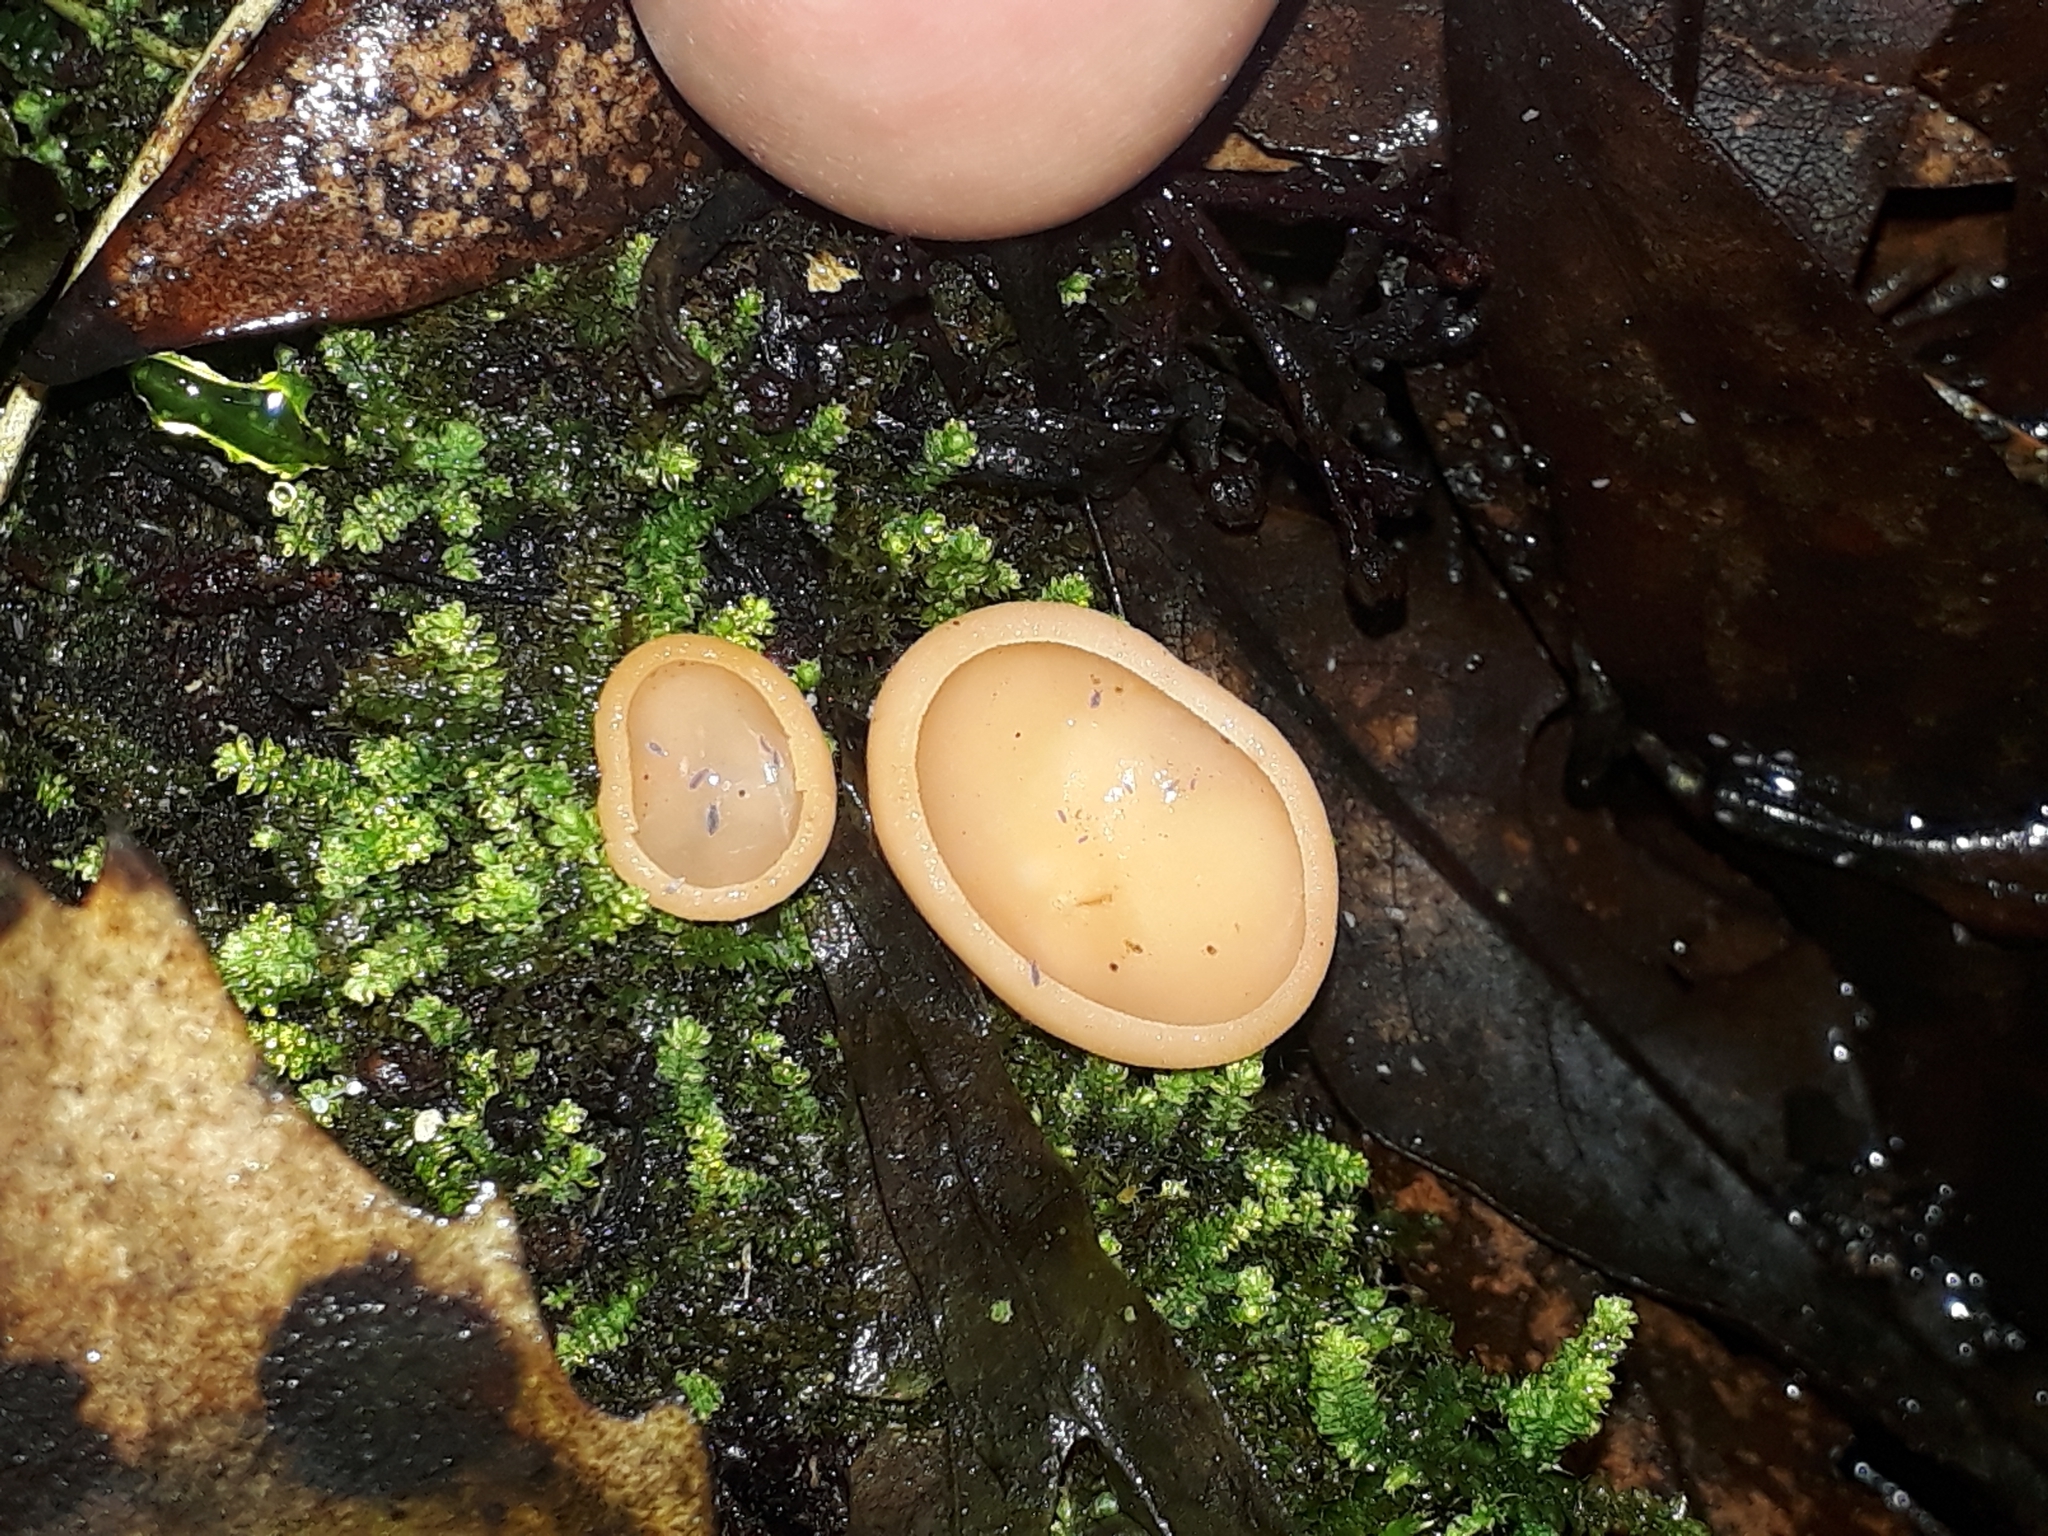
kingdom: Fungi
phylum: Ascomycota
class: Pezizomycetes
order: Pezizales
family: Sarcoscyphaceae
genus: Cookeina
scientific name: Cookeina colensoi
